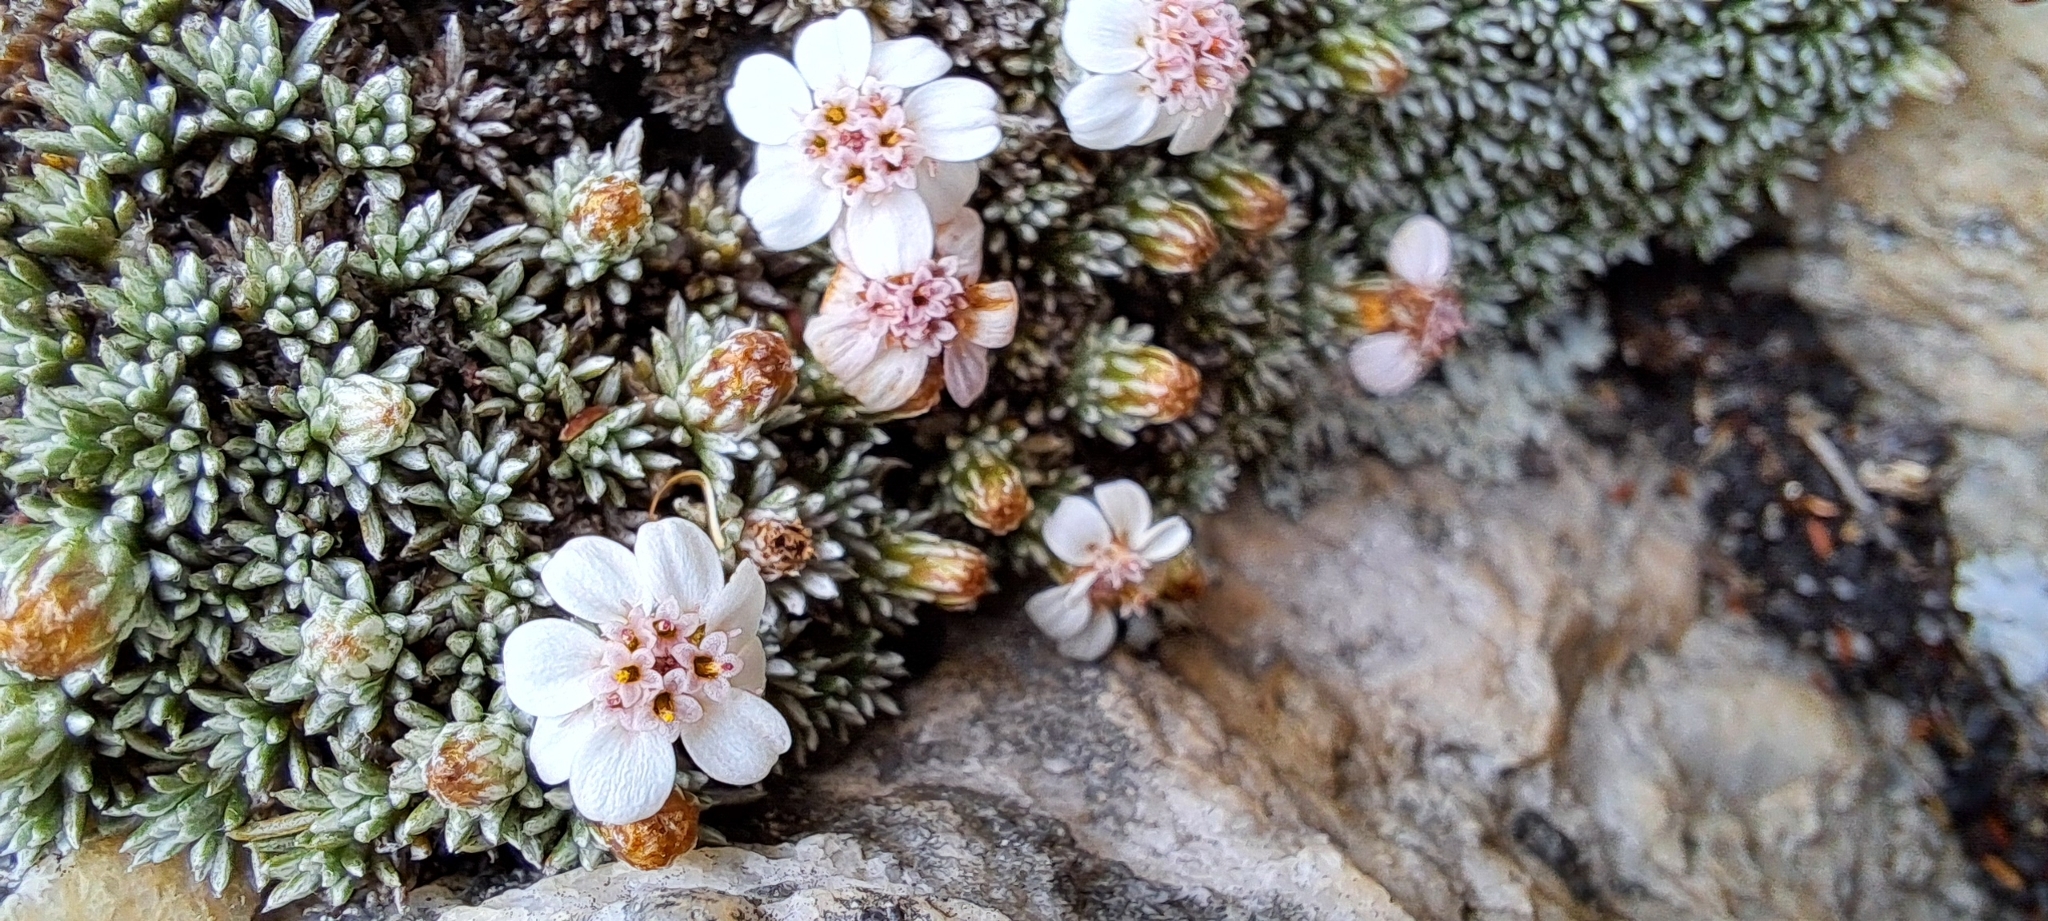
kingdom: Plantae
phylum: Tracheophyta
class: Magnoliopsida
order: Asterales
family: Asteraceae
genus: Muscosomorphe
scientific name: Muscosomorphe aretioides
